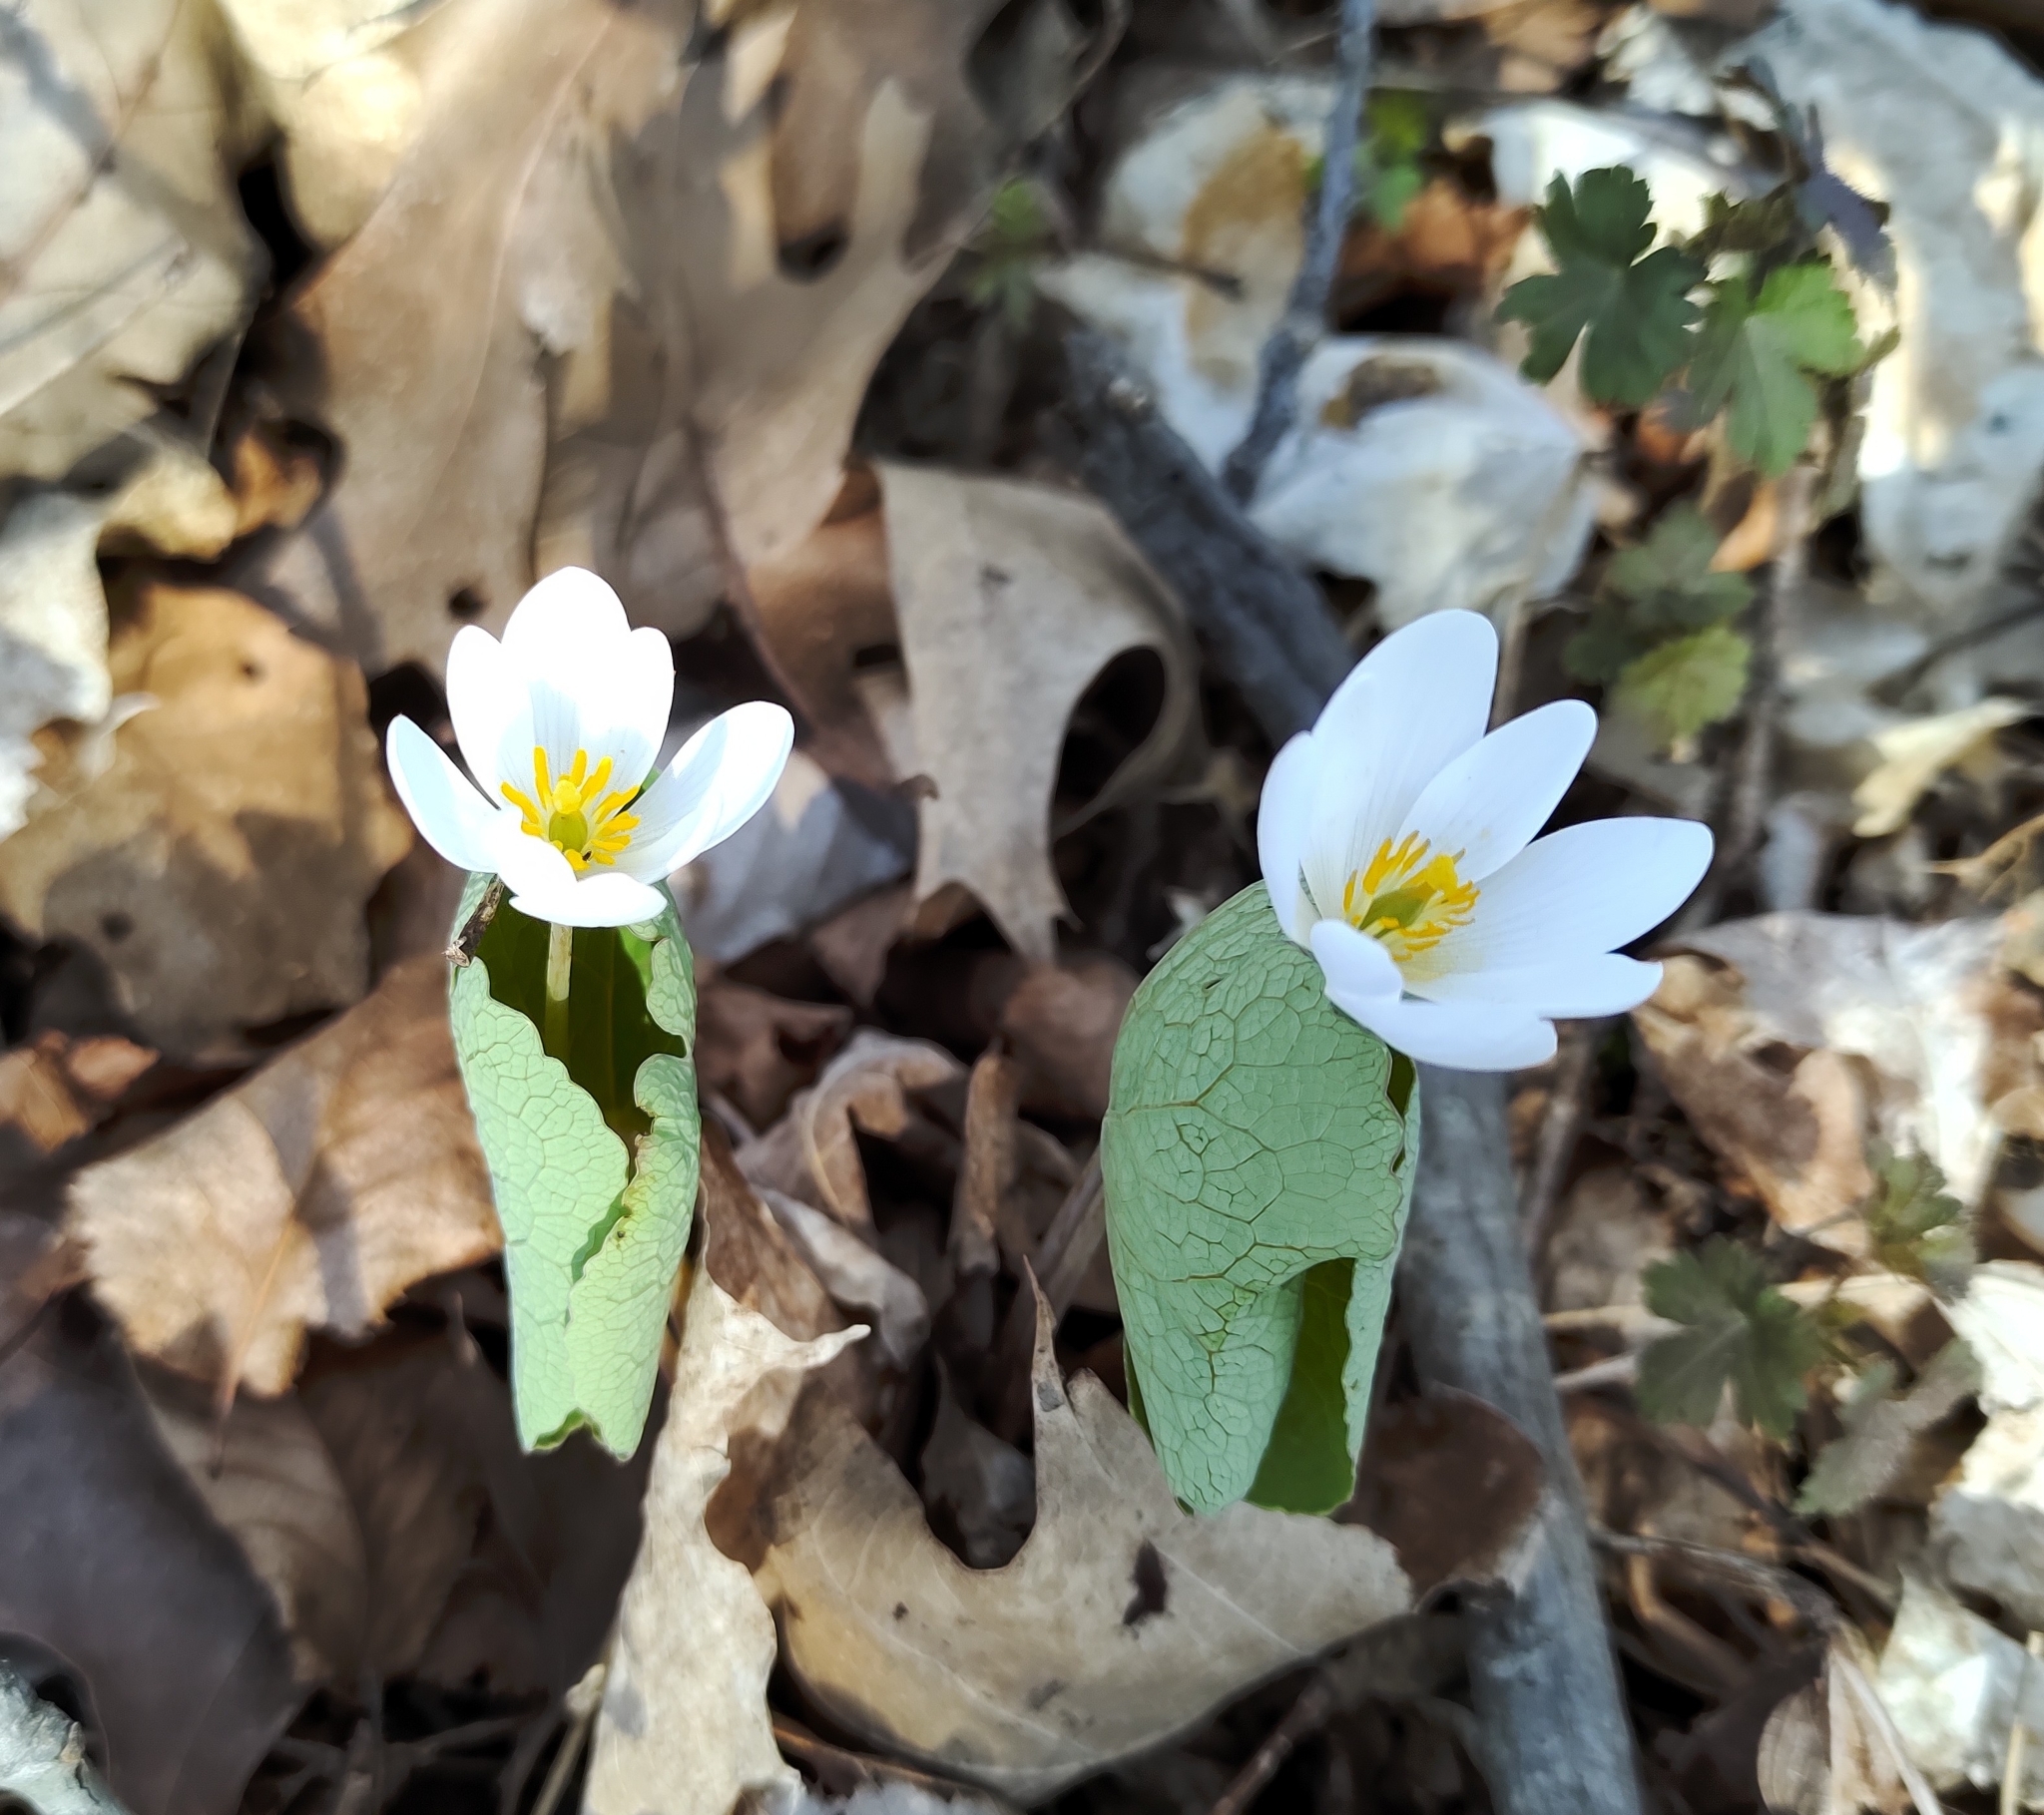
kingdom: Plantae
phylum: Tracheophyta
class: Magnoliopsida
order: Ranunculales
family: Papaveraceae
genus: Sanguinaria
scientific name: Sanguinaria canadensis
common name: Bloodroot
